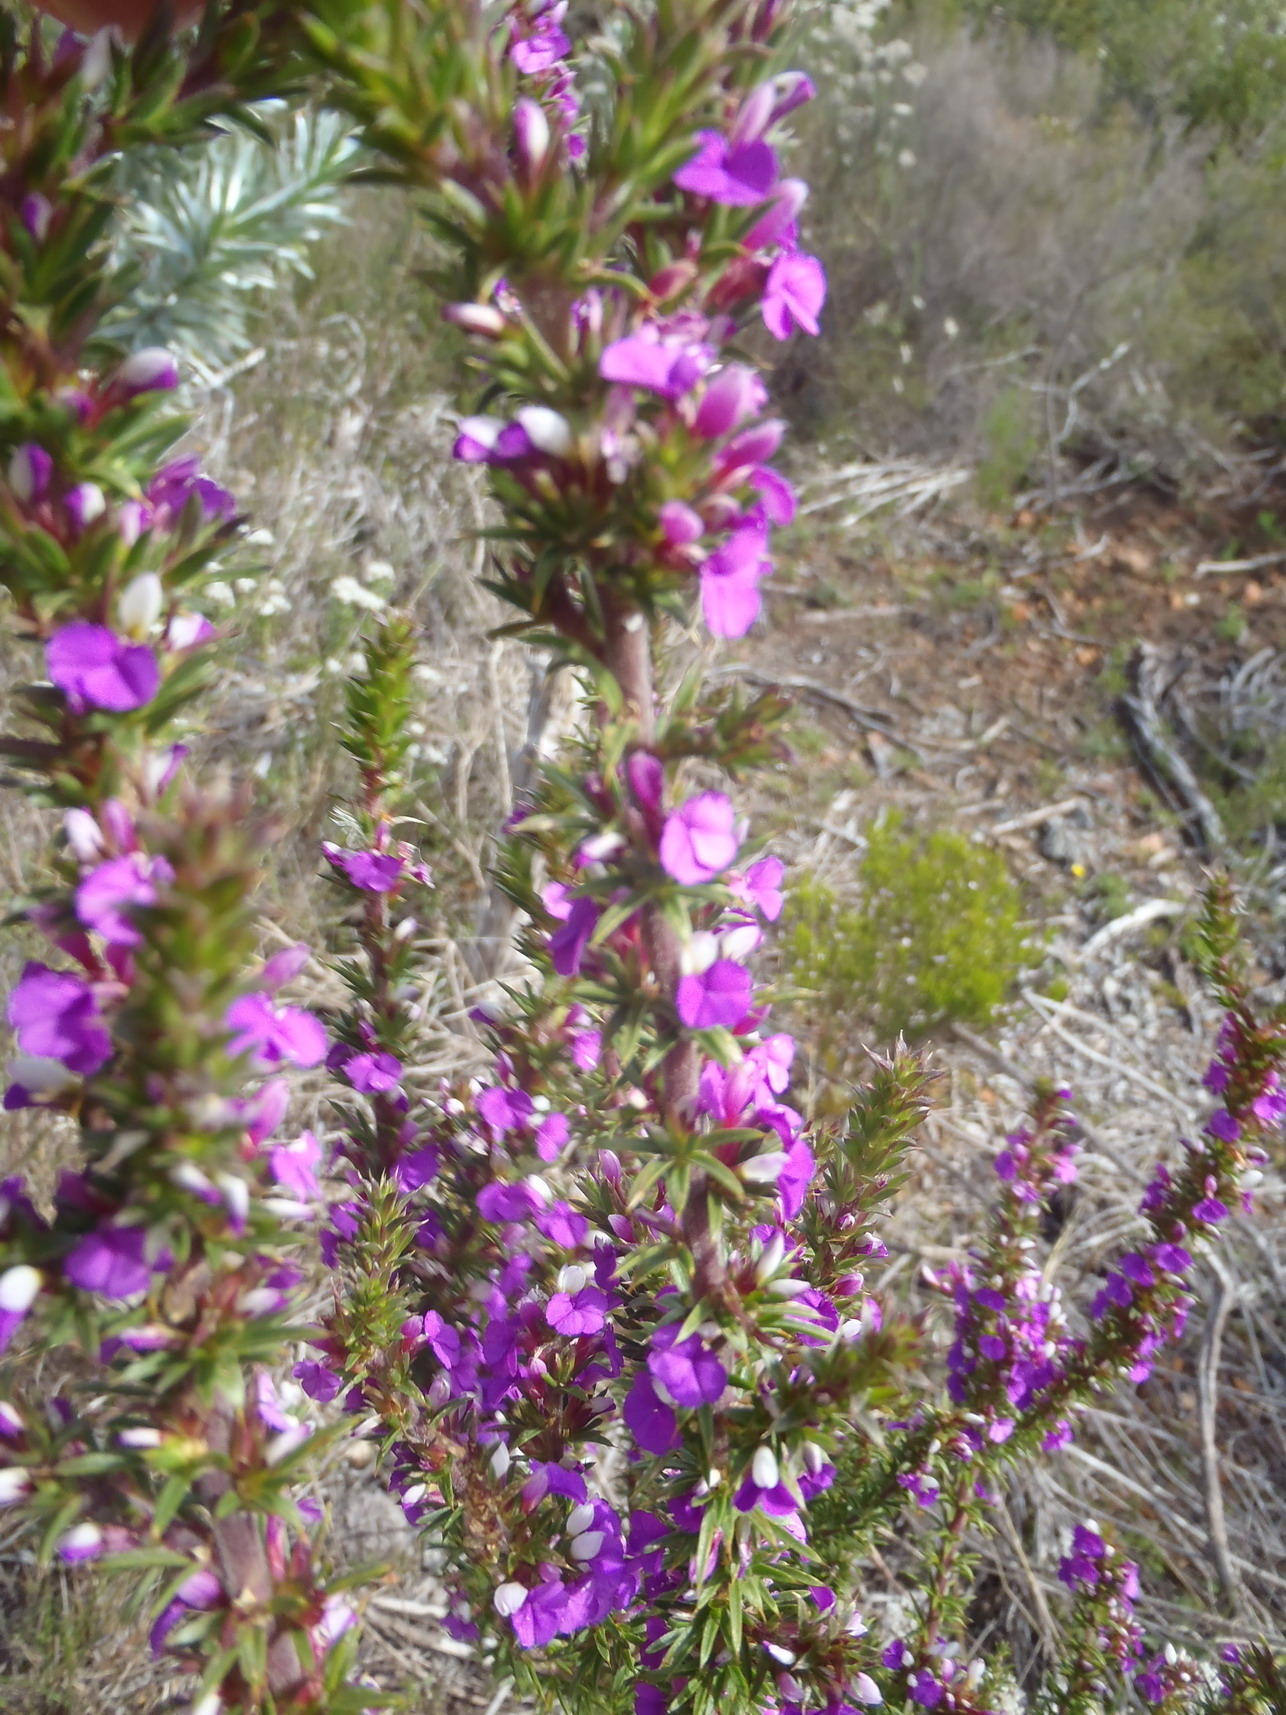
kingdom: Plantae
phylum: Tracheophyta
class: Magnoliopsida
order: Fabales
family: Polygalaceae
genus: Muraltia
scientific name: Muraltia heisteria
